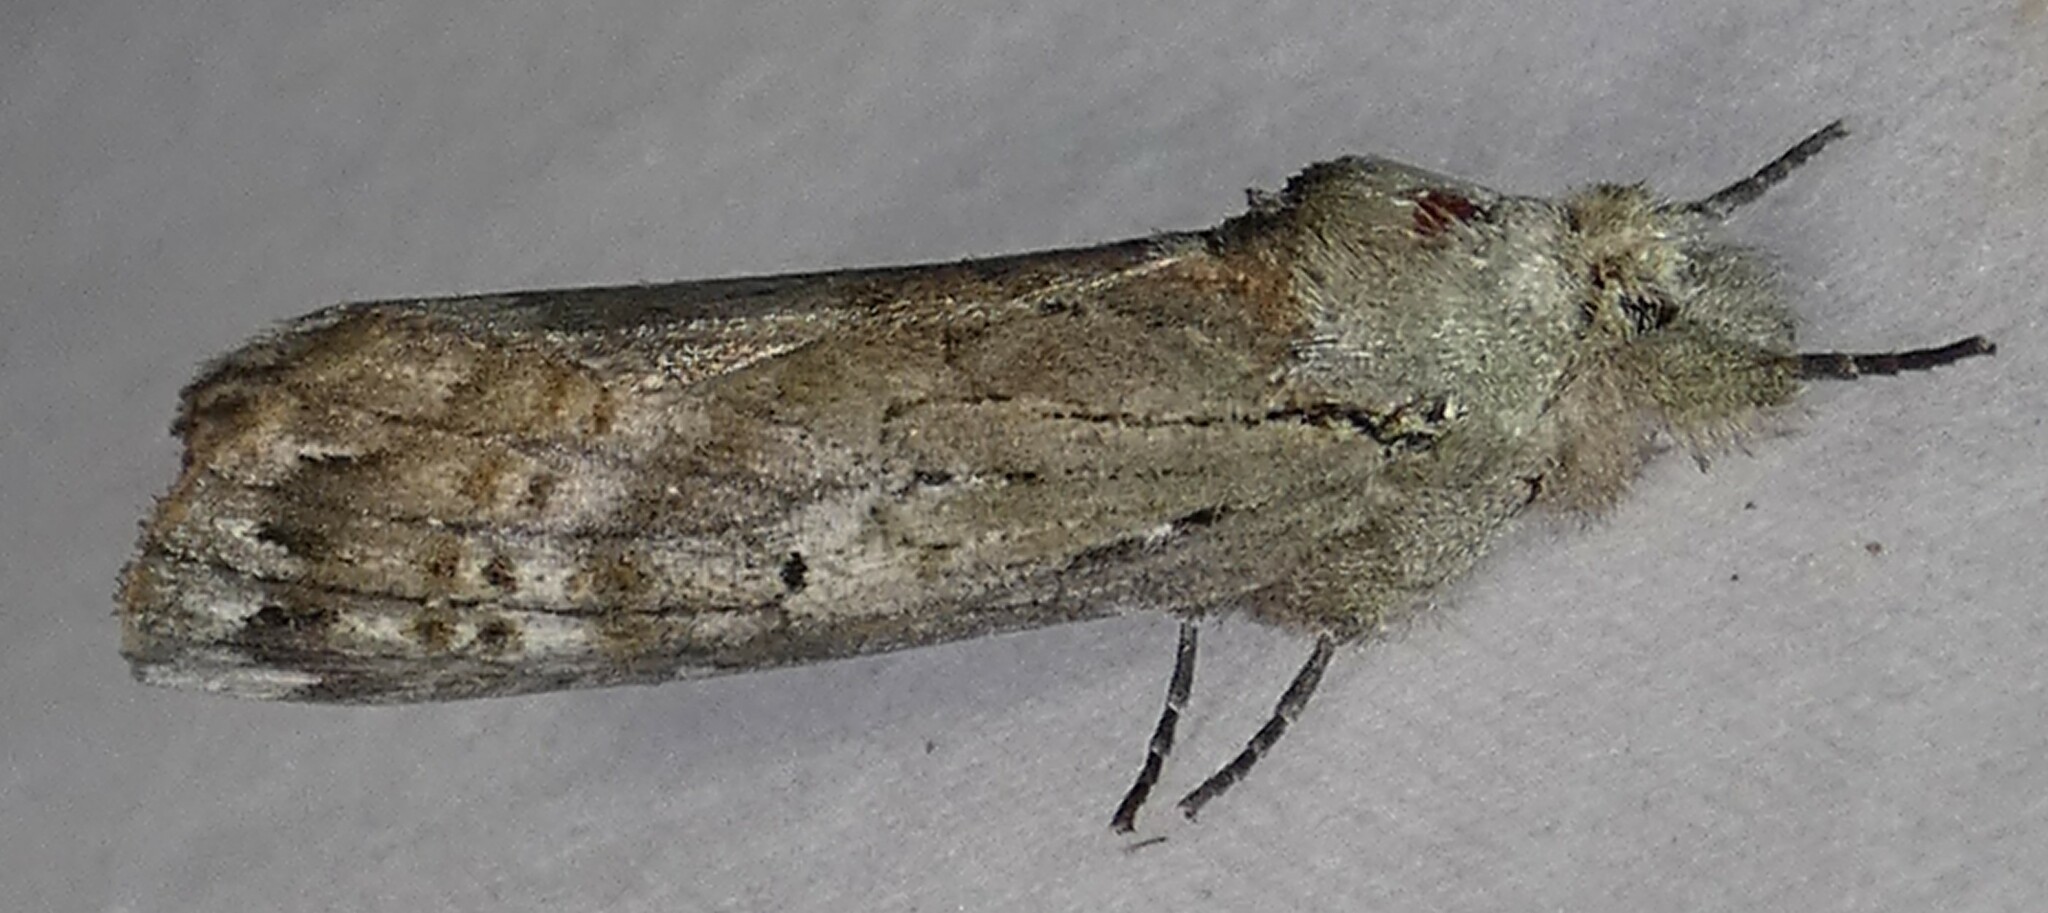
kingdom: Animalia
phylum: Arthropoda
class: Insecta
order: Lepidoptera
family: Notodontidae
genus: Schizura
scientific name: Schizura
